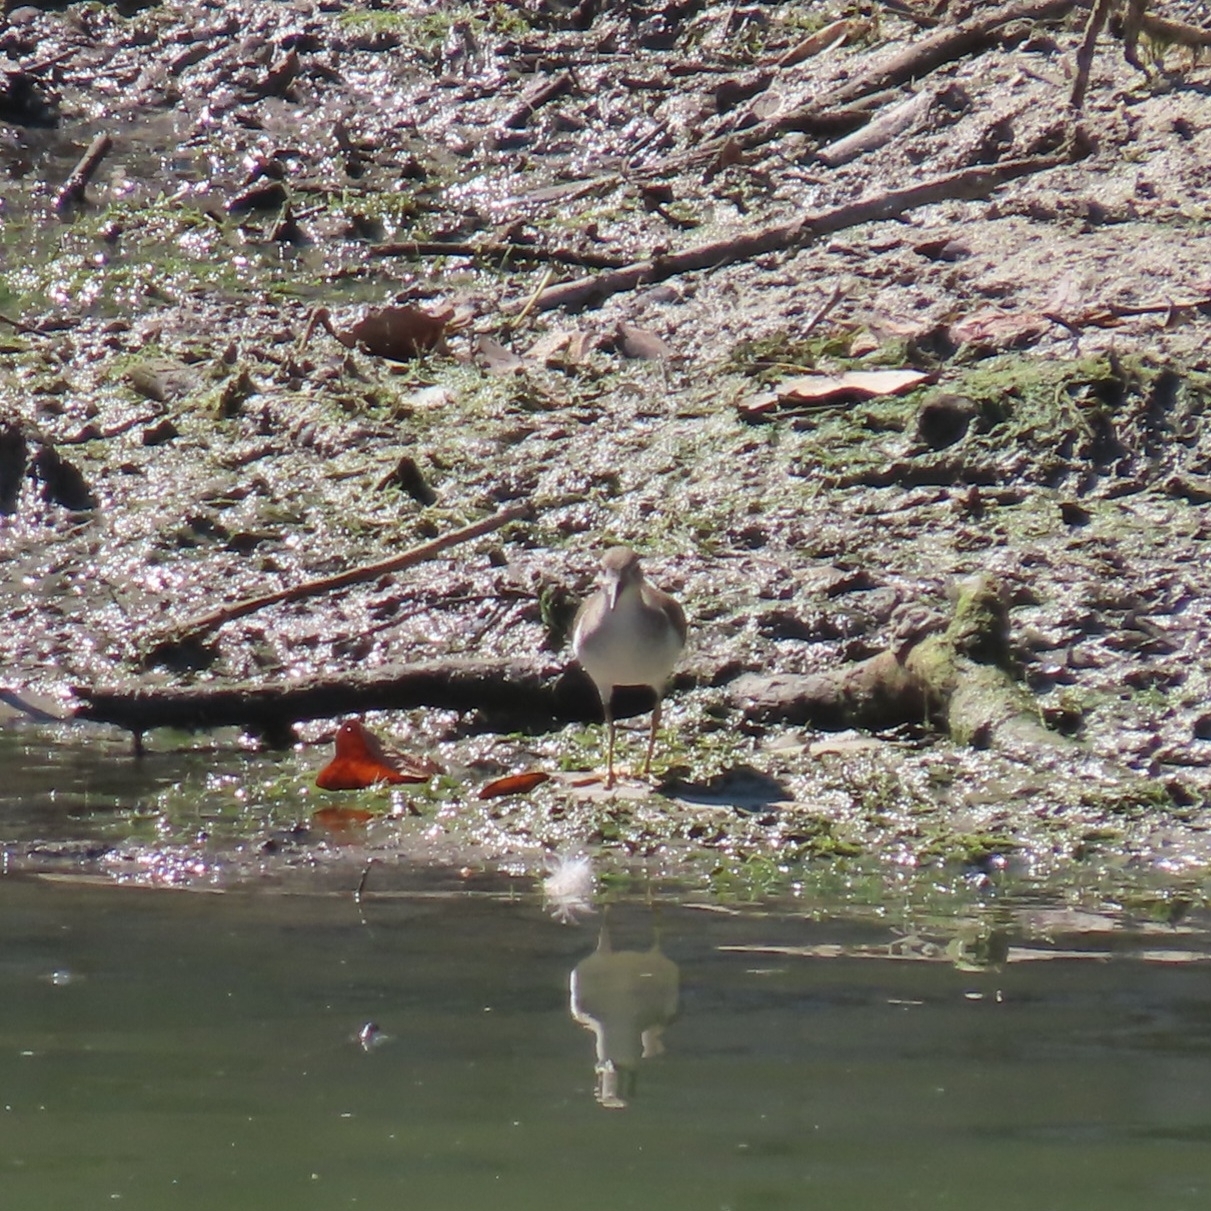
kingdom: Animalia
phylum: Chordata
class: Aves
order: Charadriiformes
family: Scolopacidae
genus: Actitis
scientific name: Actitis macularius
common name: Spotted sandpiper
